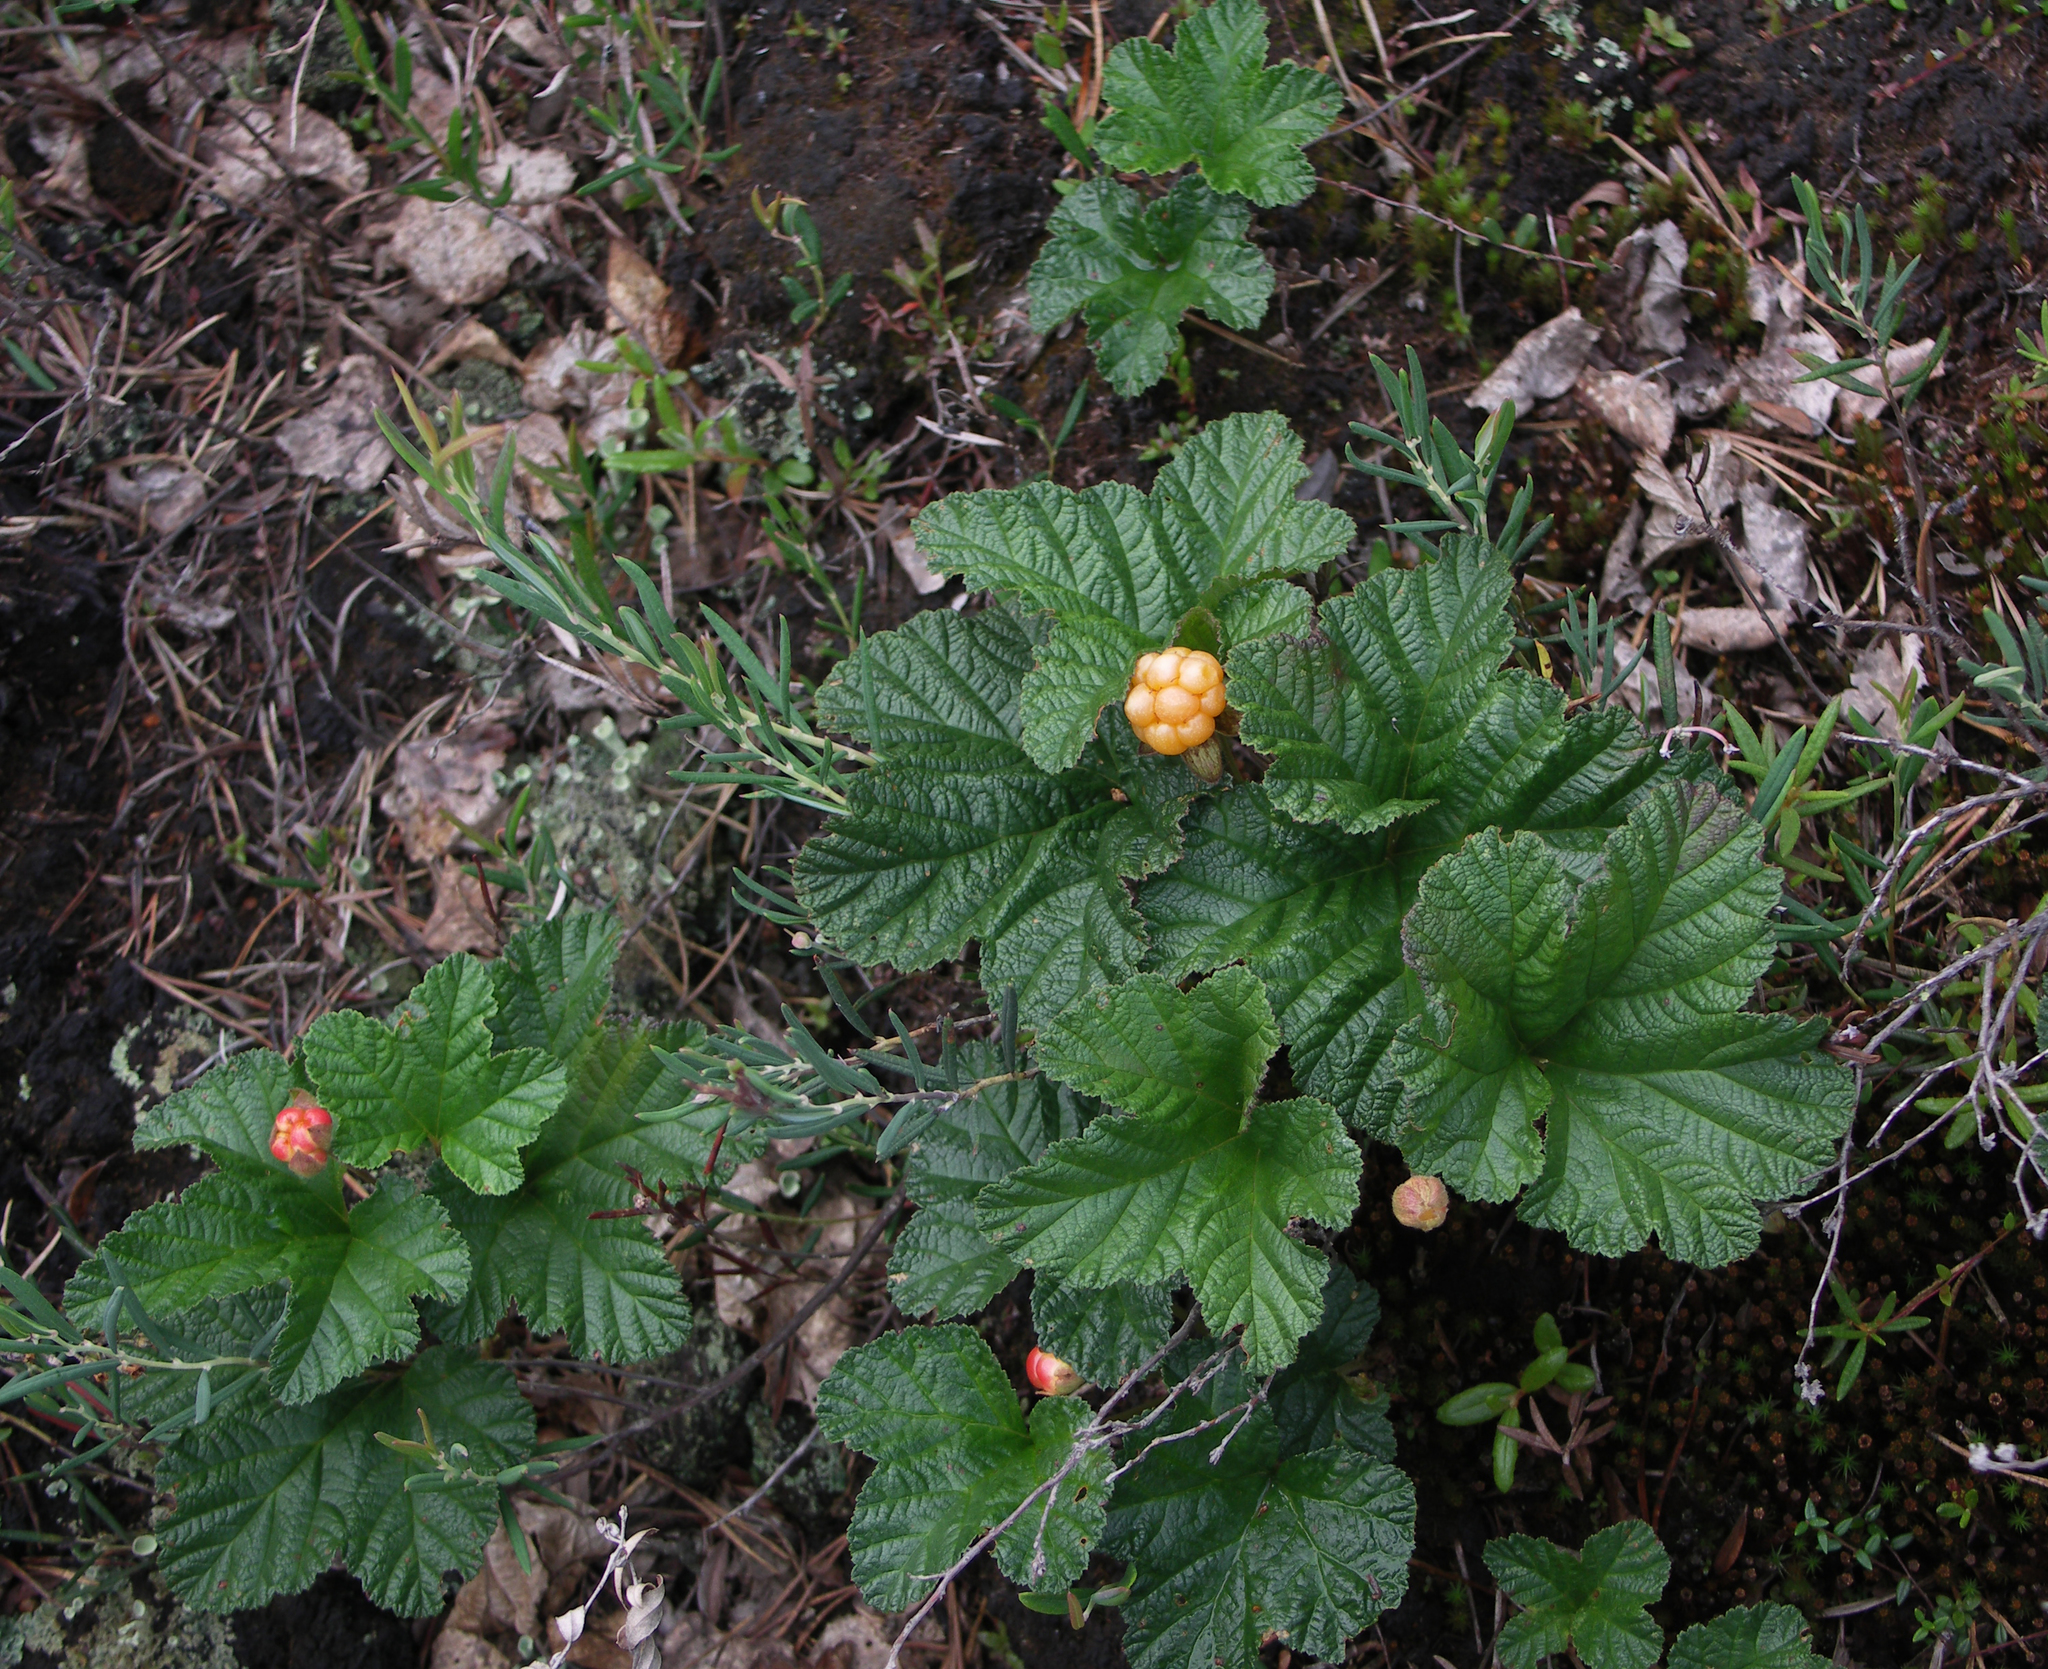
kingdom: Plantae
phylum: Tracheophyta
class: Magnoliopsida
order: Rosales
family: Rosaceae
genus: Rubus
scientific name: Rubus chamaemorus
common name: Cloudberry
